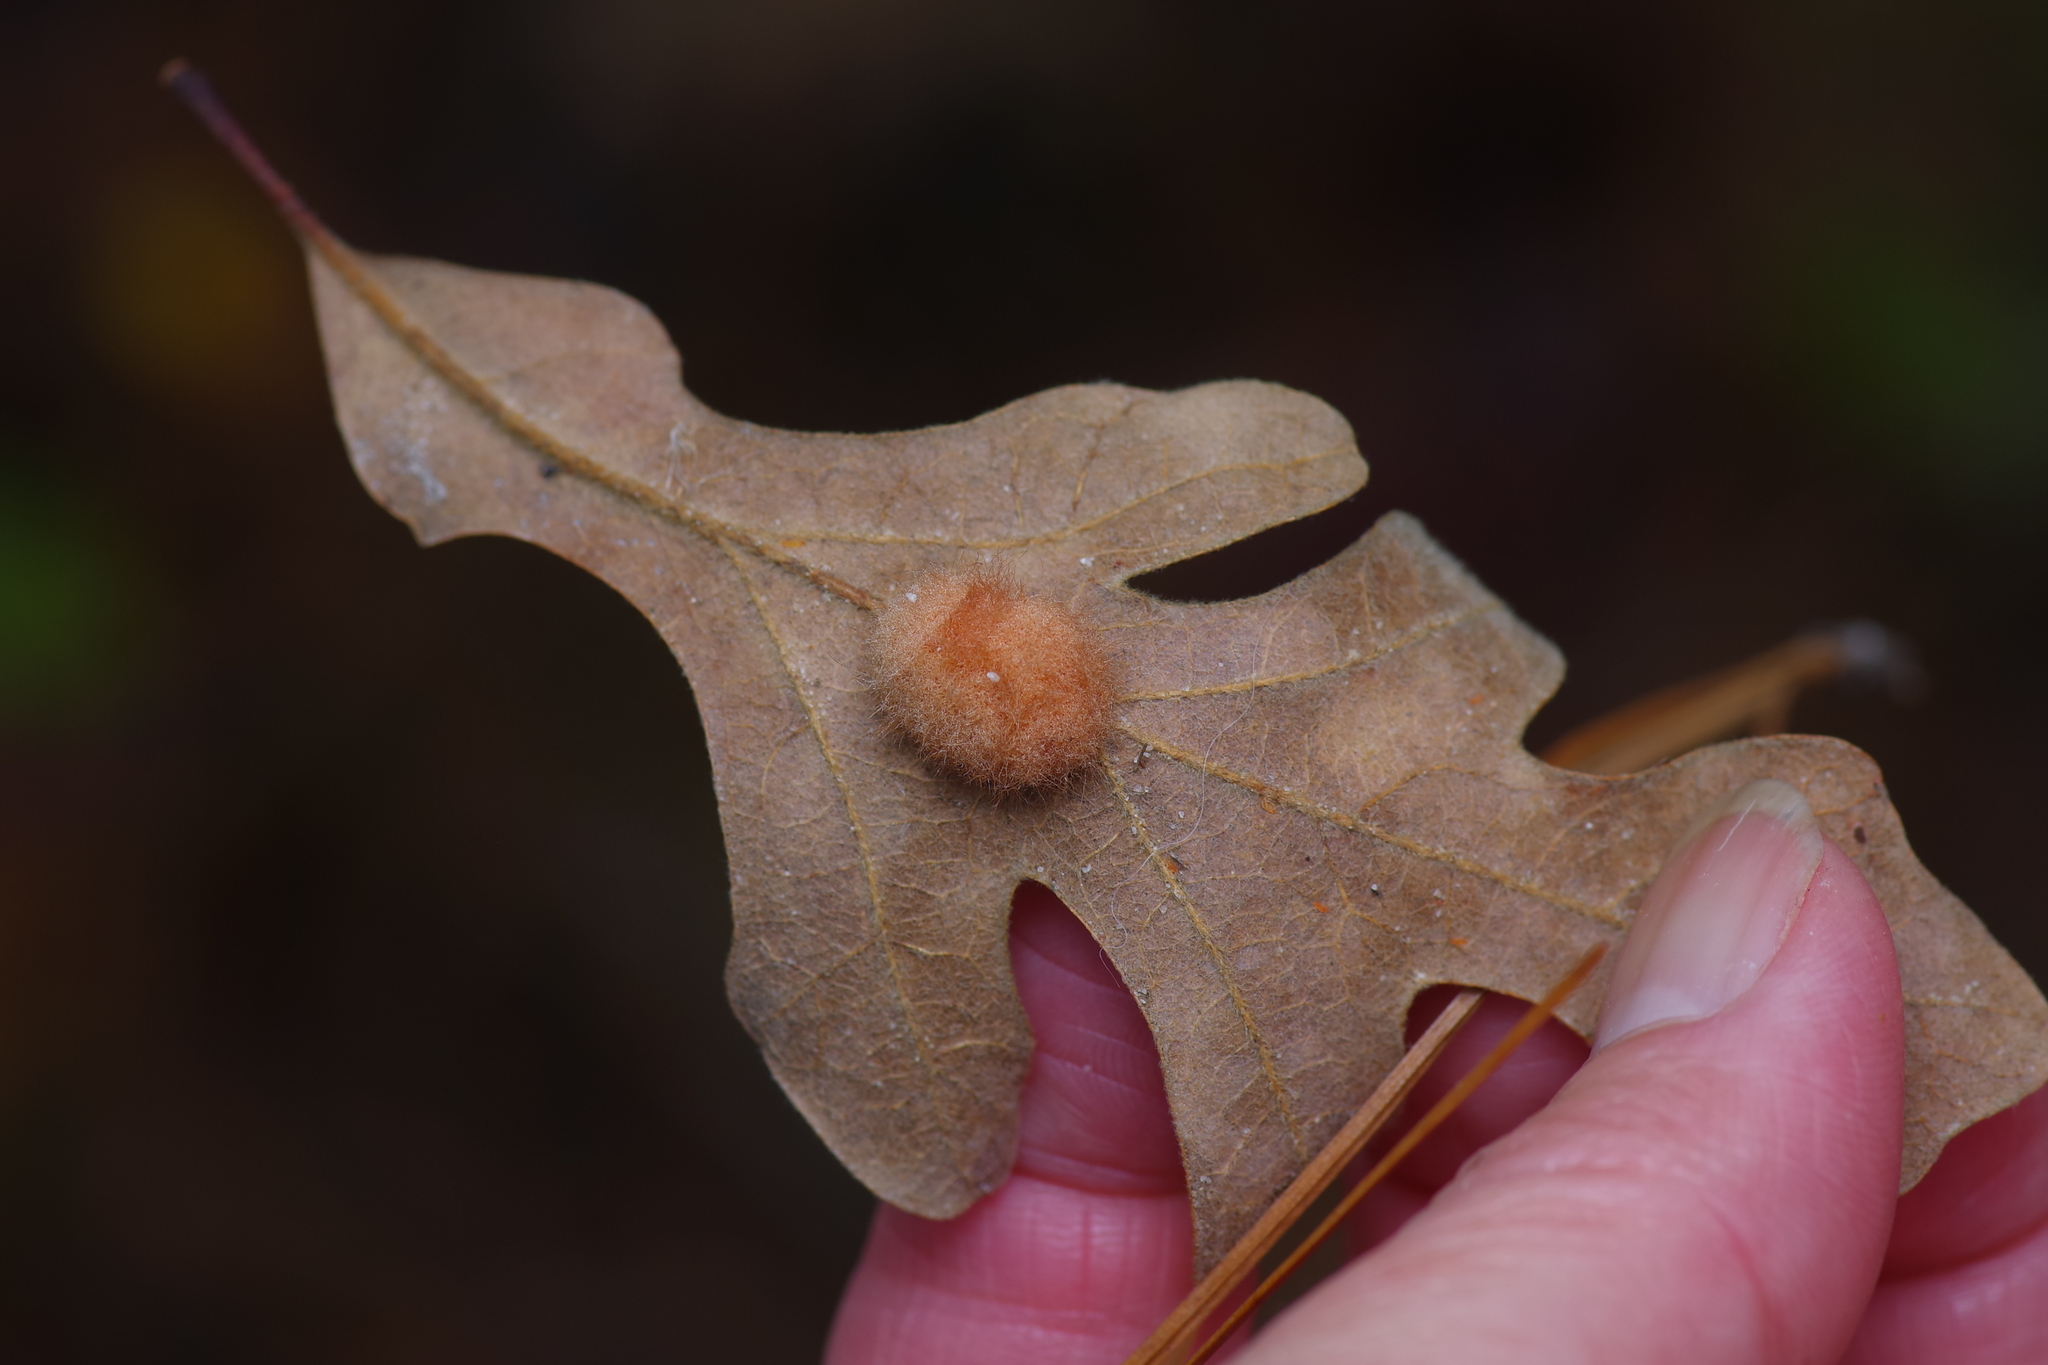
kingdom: Animalia
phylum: Arthropoda
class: Insecta
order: Hymenoptera
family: Cynipidae
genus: Andricus
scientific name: Andricus Druon pattoni
